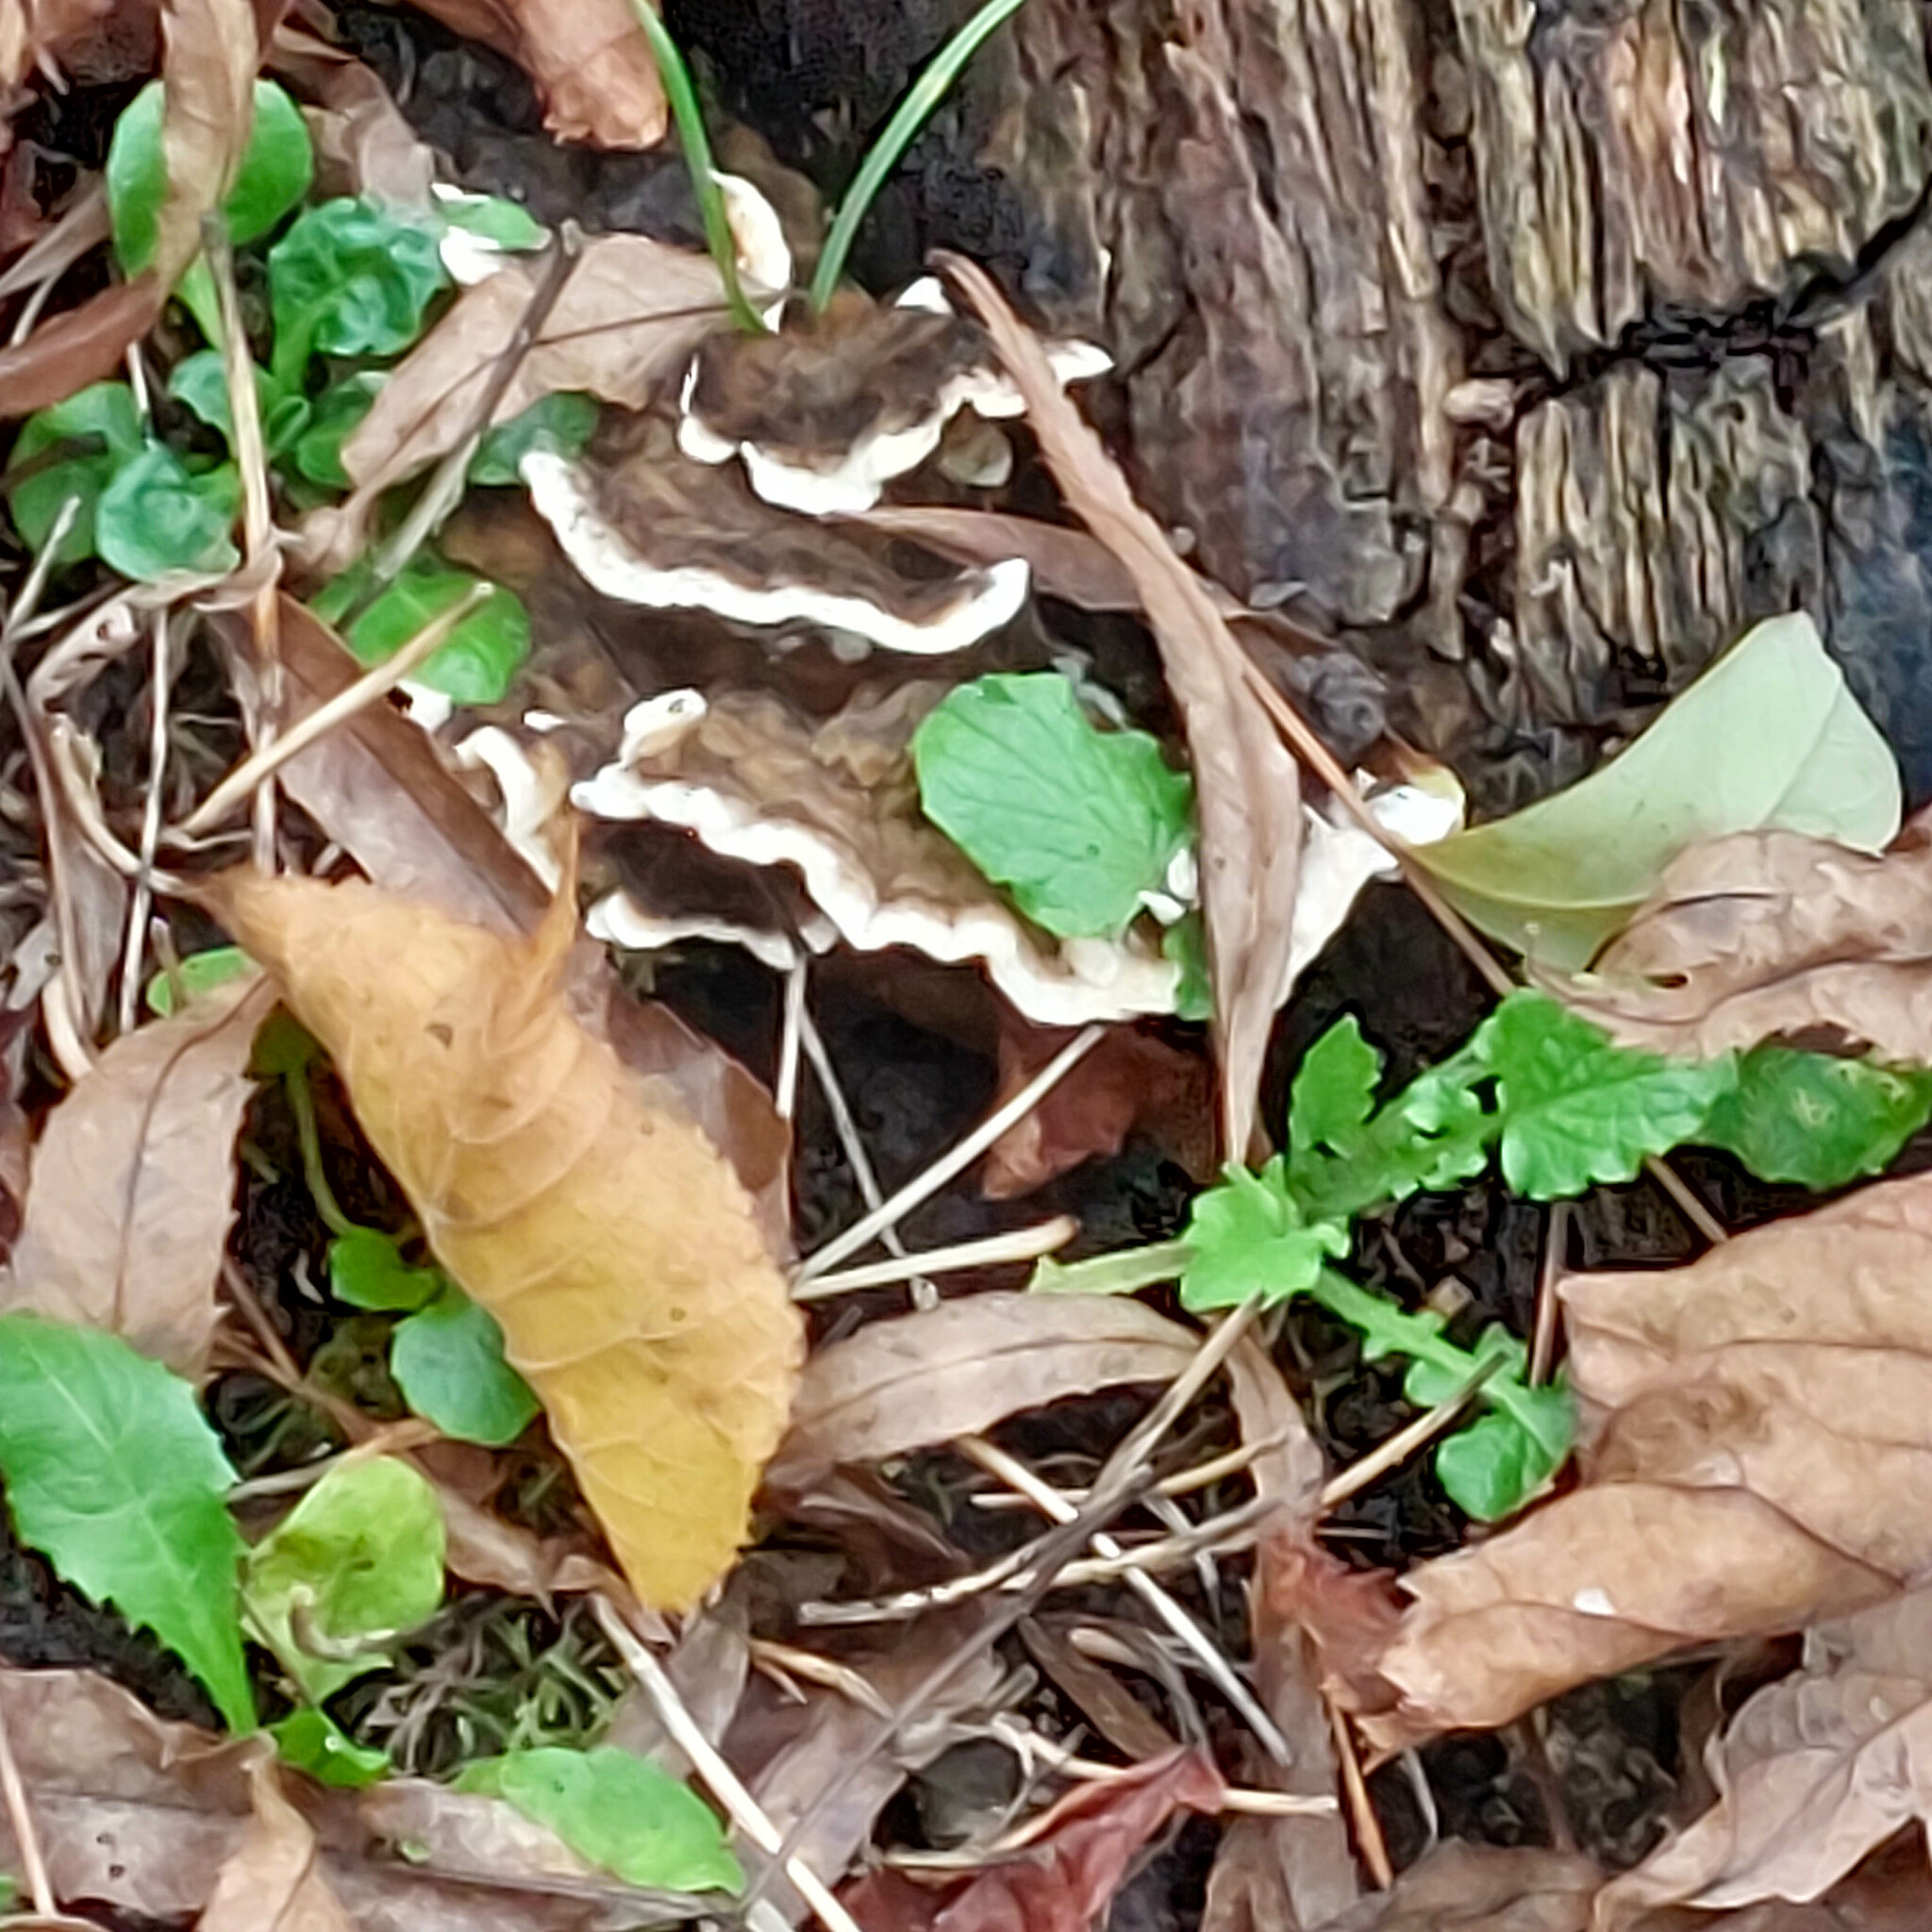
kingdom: Fungi
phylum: Basidiomycota
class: Agaricomycetes
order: Polyporales
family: Polyporaceae
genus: Trametes
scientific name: Trametes versicolor
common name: Turkeytail
